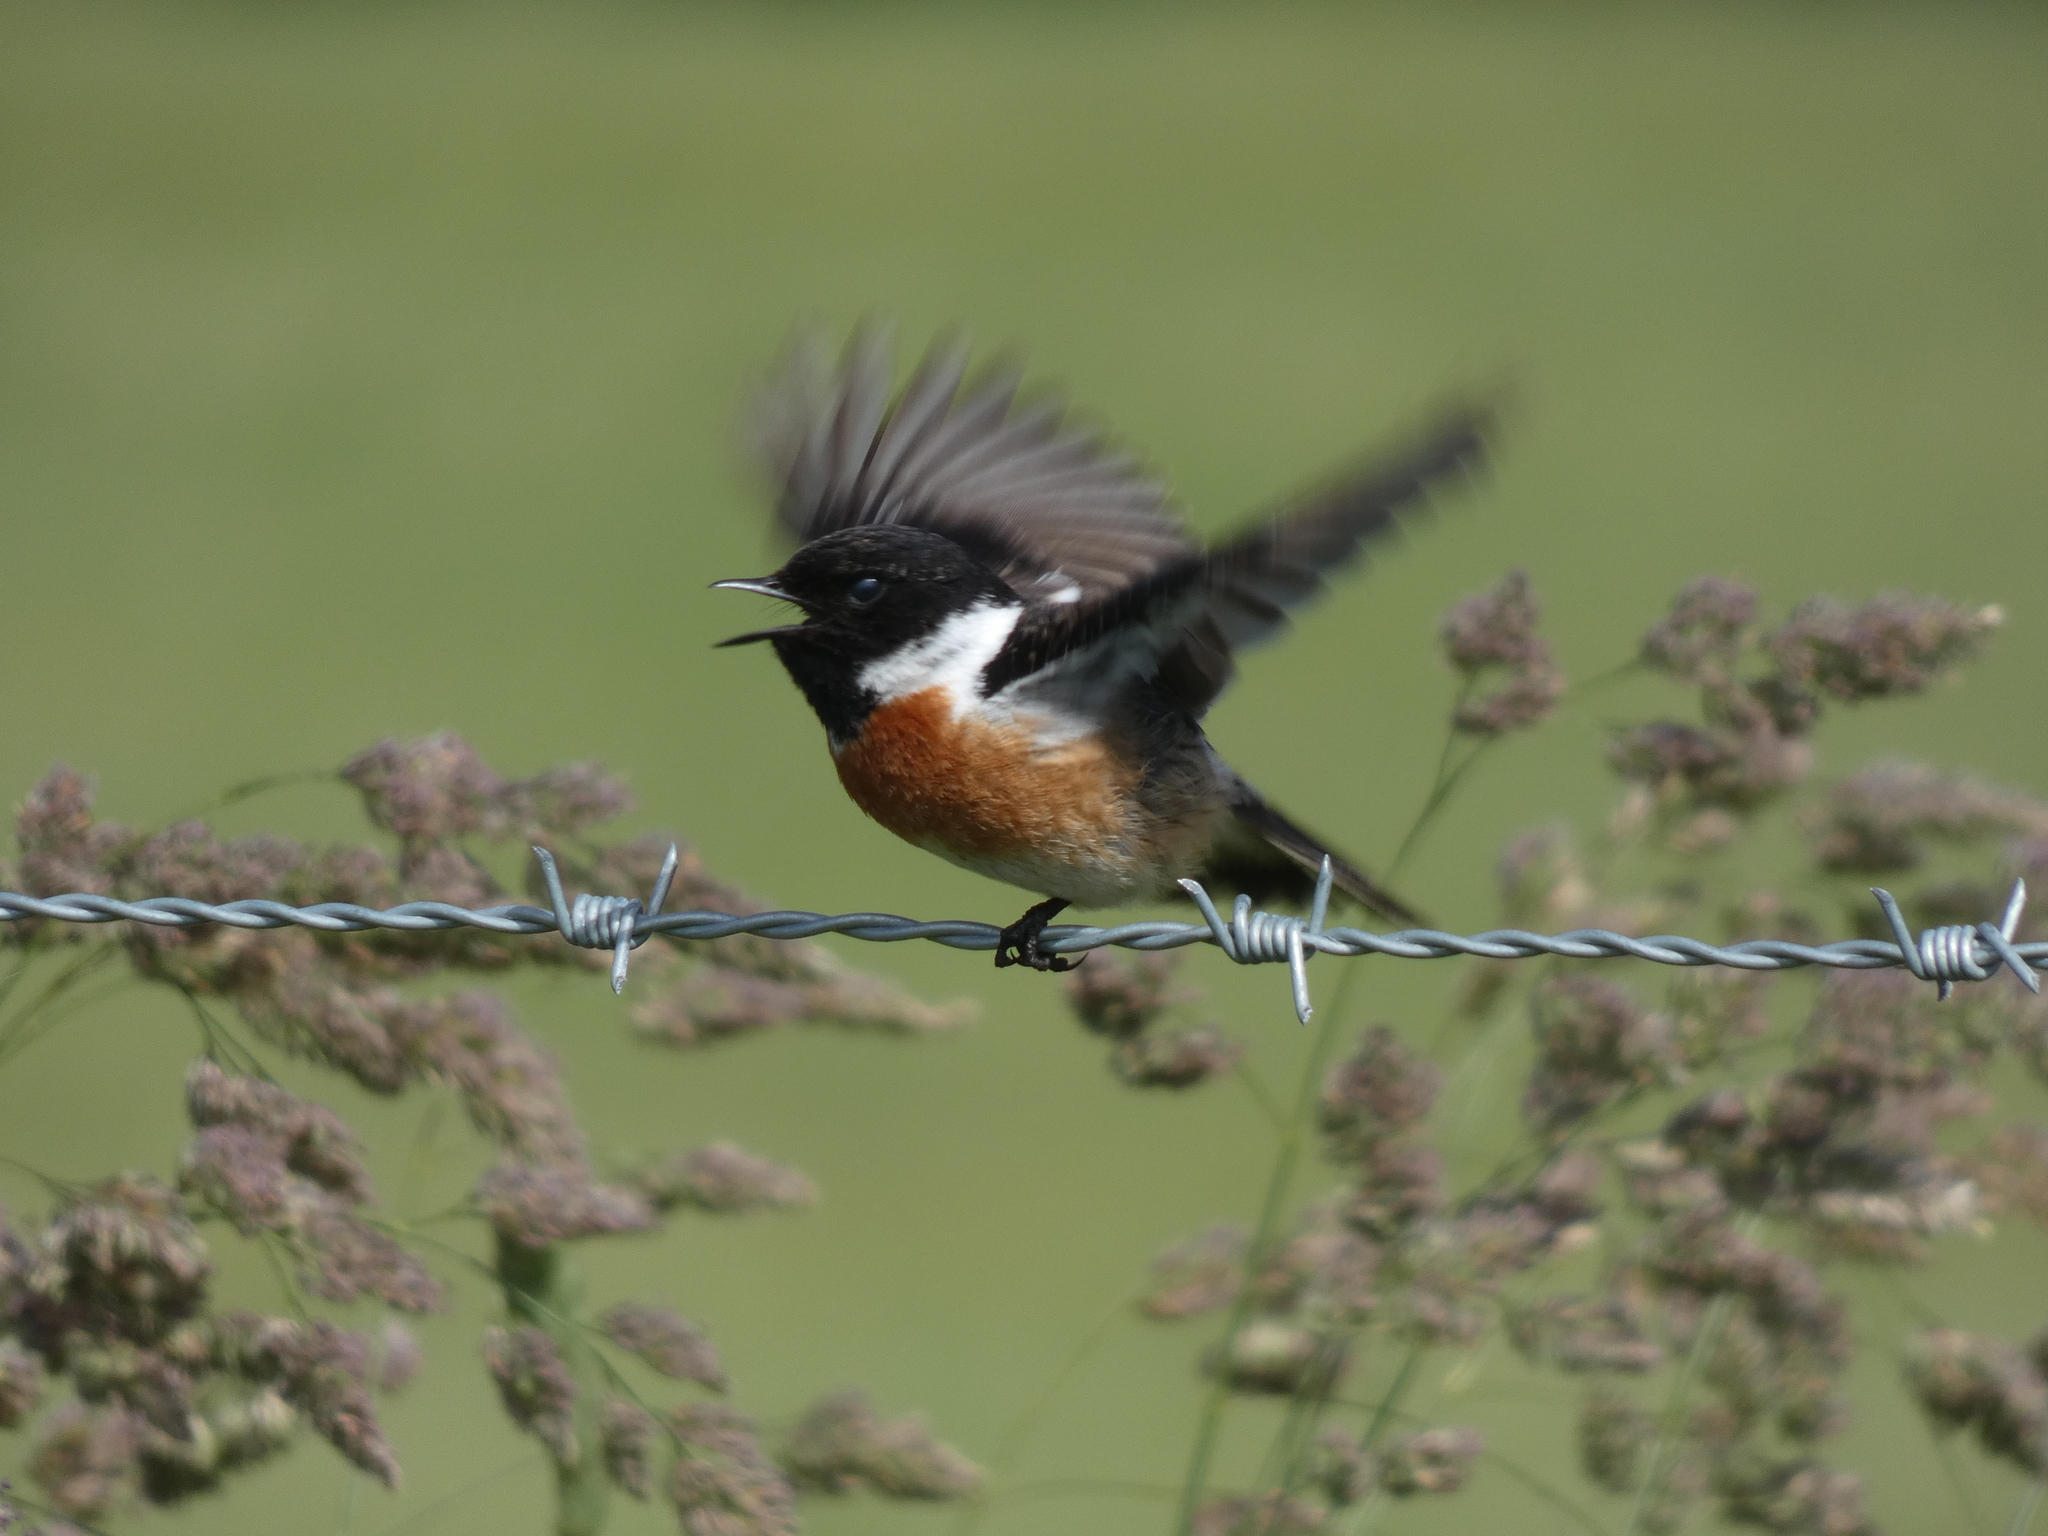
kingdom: Animalia
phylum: Chordata
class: Aves
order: Passeriformes
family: Muscicapidae
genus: Saxicola
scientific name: Saxicola rubicola
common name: European stonechat
